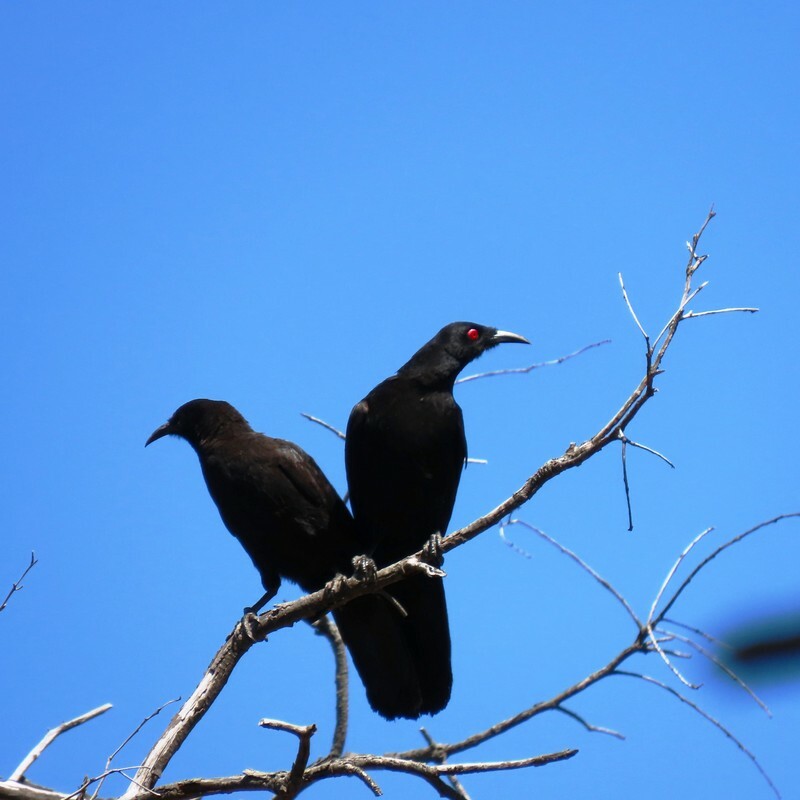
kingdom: Animalia
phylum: Chordata
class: Aves
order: Passeriformes
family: Corcoracidae
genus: Corcorax
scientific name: Corcorax melanoramphos
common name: White-winged chough
